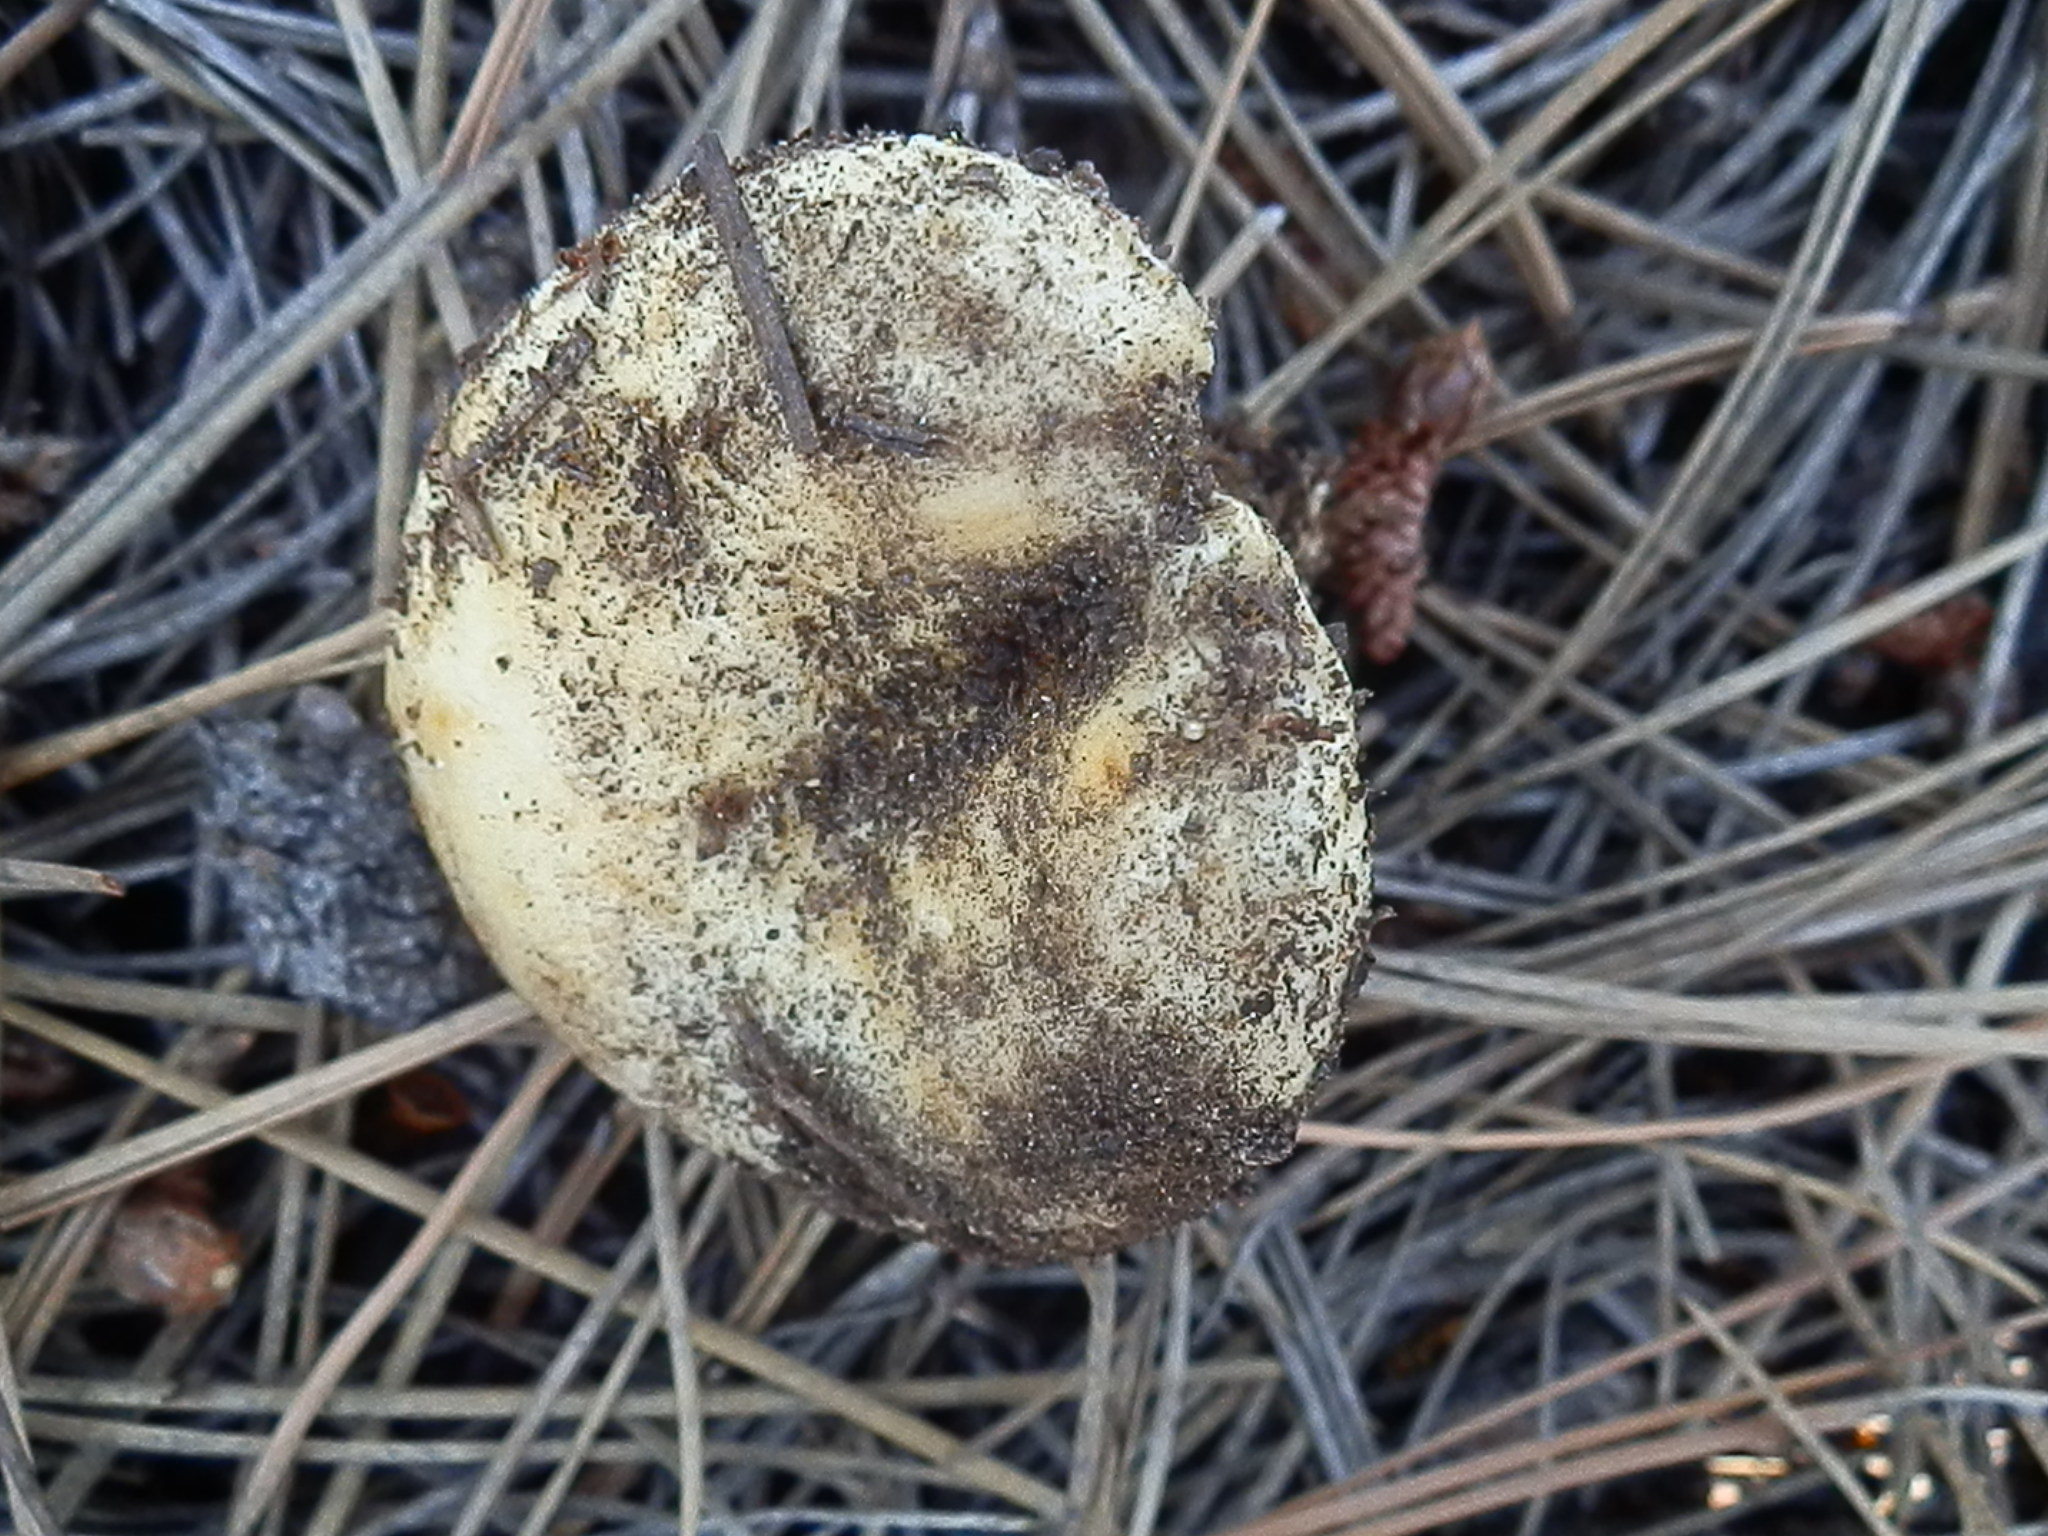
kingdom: Fungi
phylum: Basidiomycota
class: Agaricomycetes
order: Russulales
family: Russulaceae
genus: Lactarius
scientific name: Lactarius alnicola
